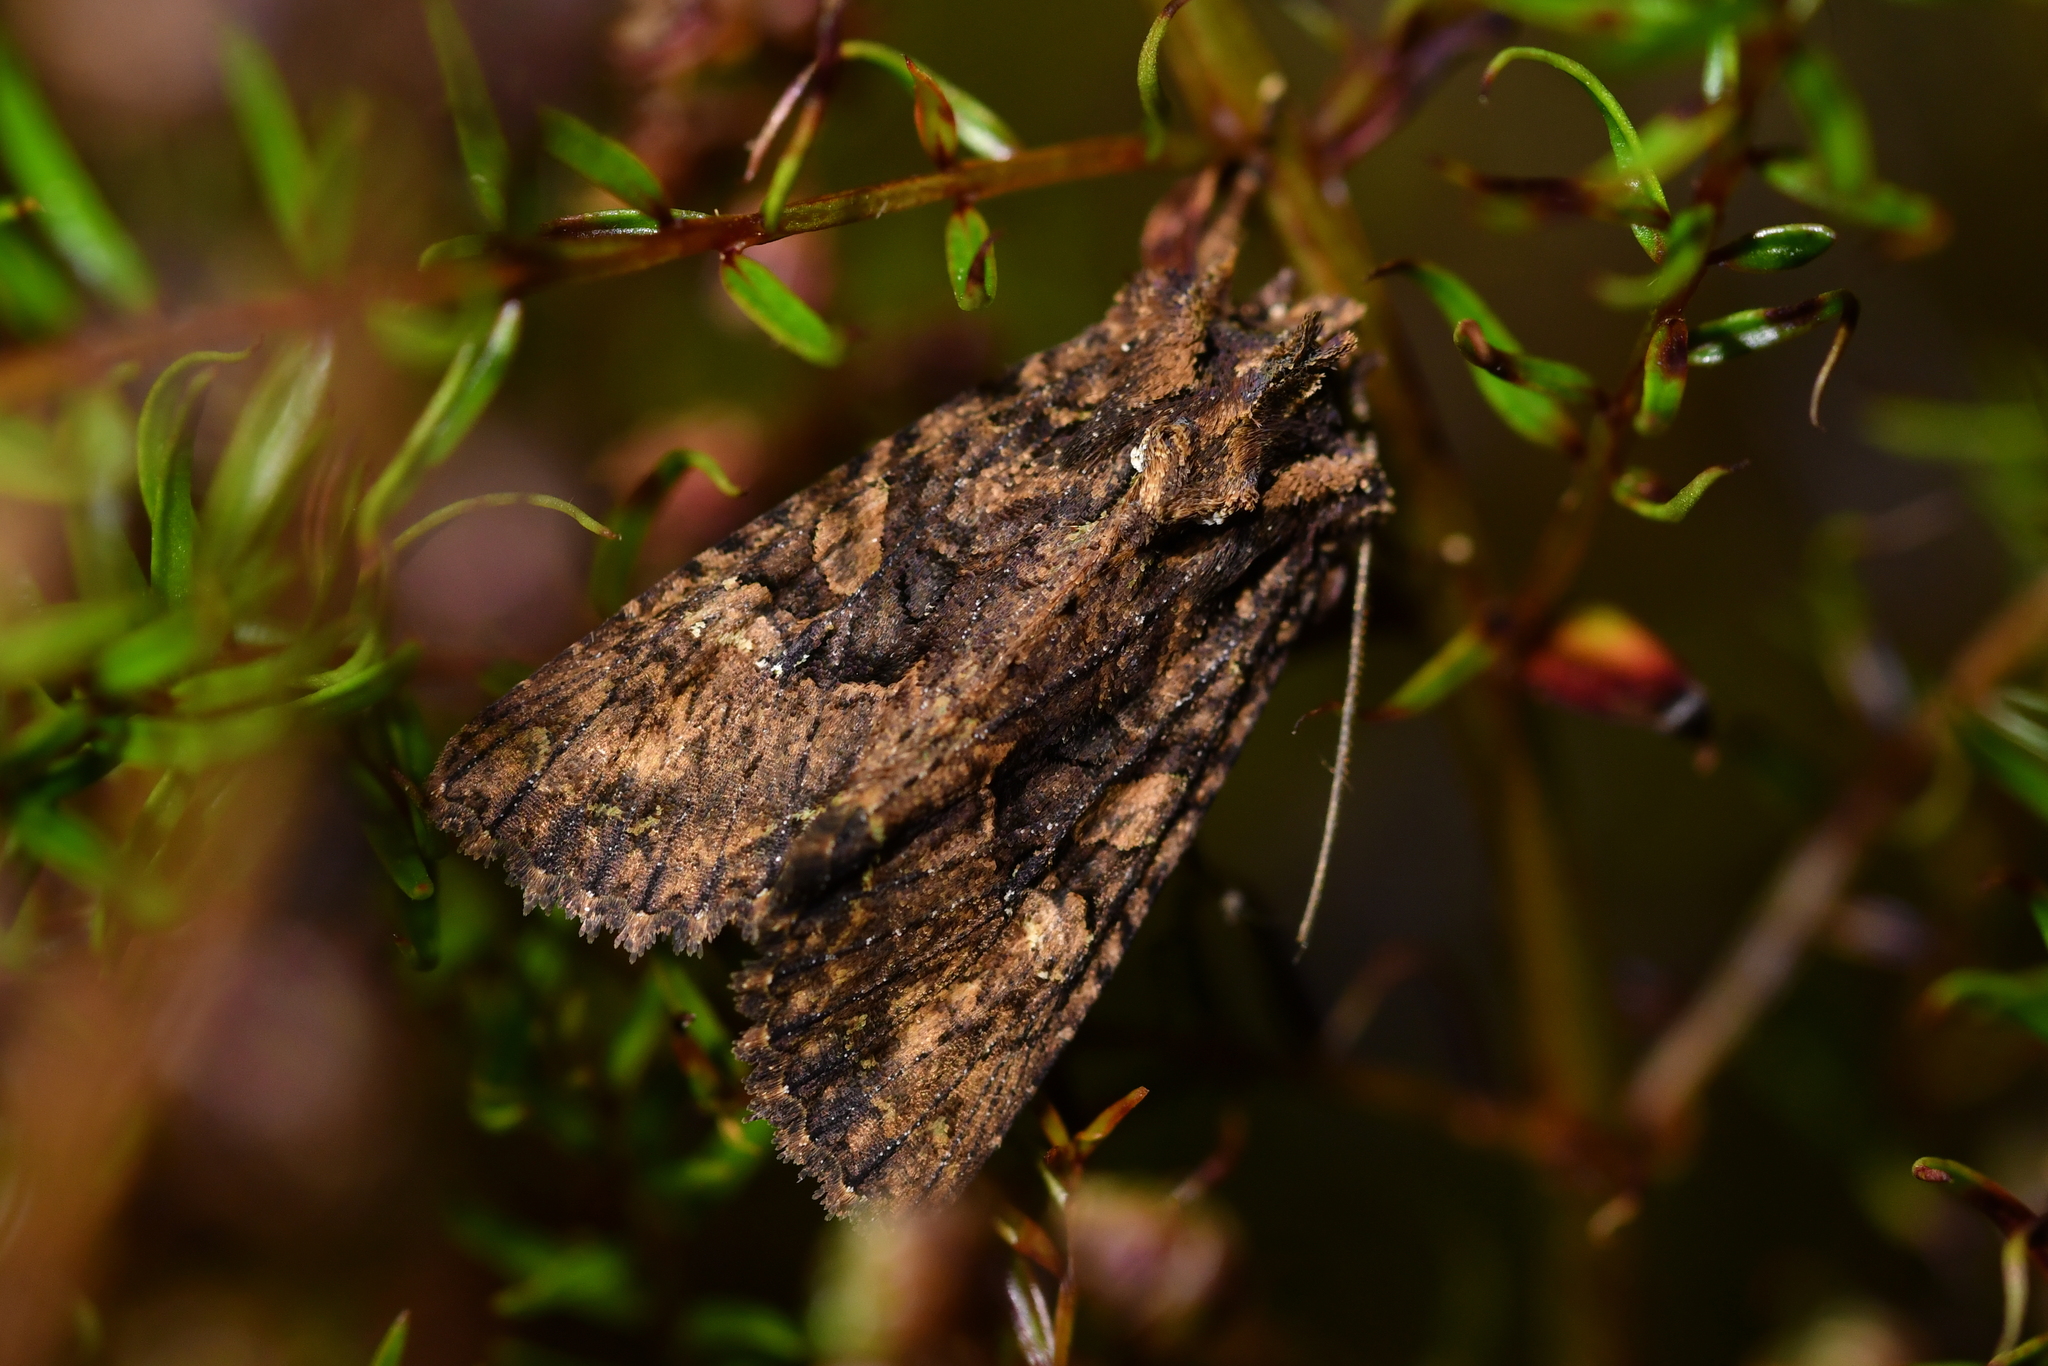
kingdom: Animalia
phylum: Arthropoda
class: Insecta
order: Lepidoptera
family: Noctuidae
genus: Meterana
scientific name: Meterana ochthistis
